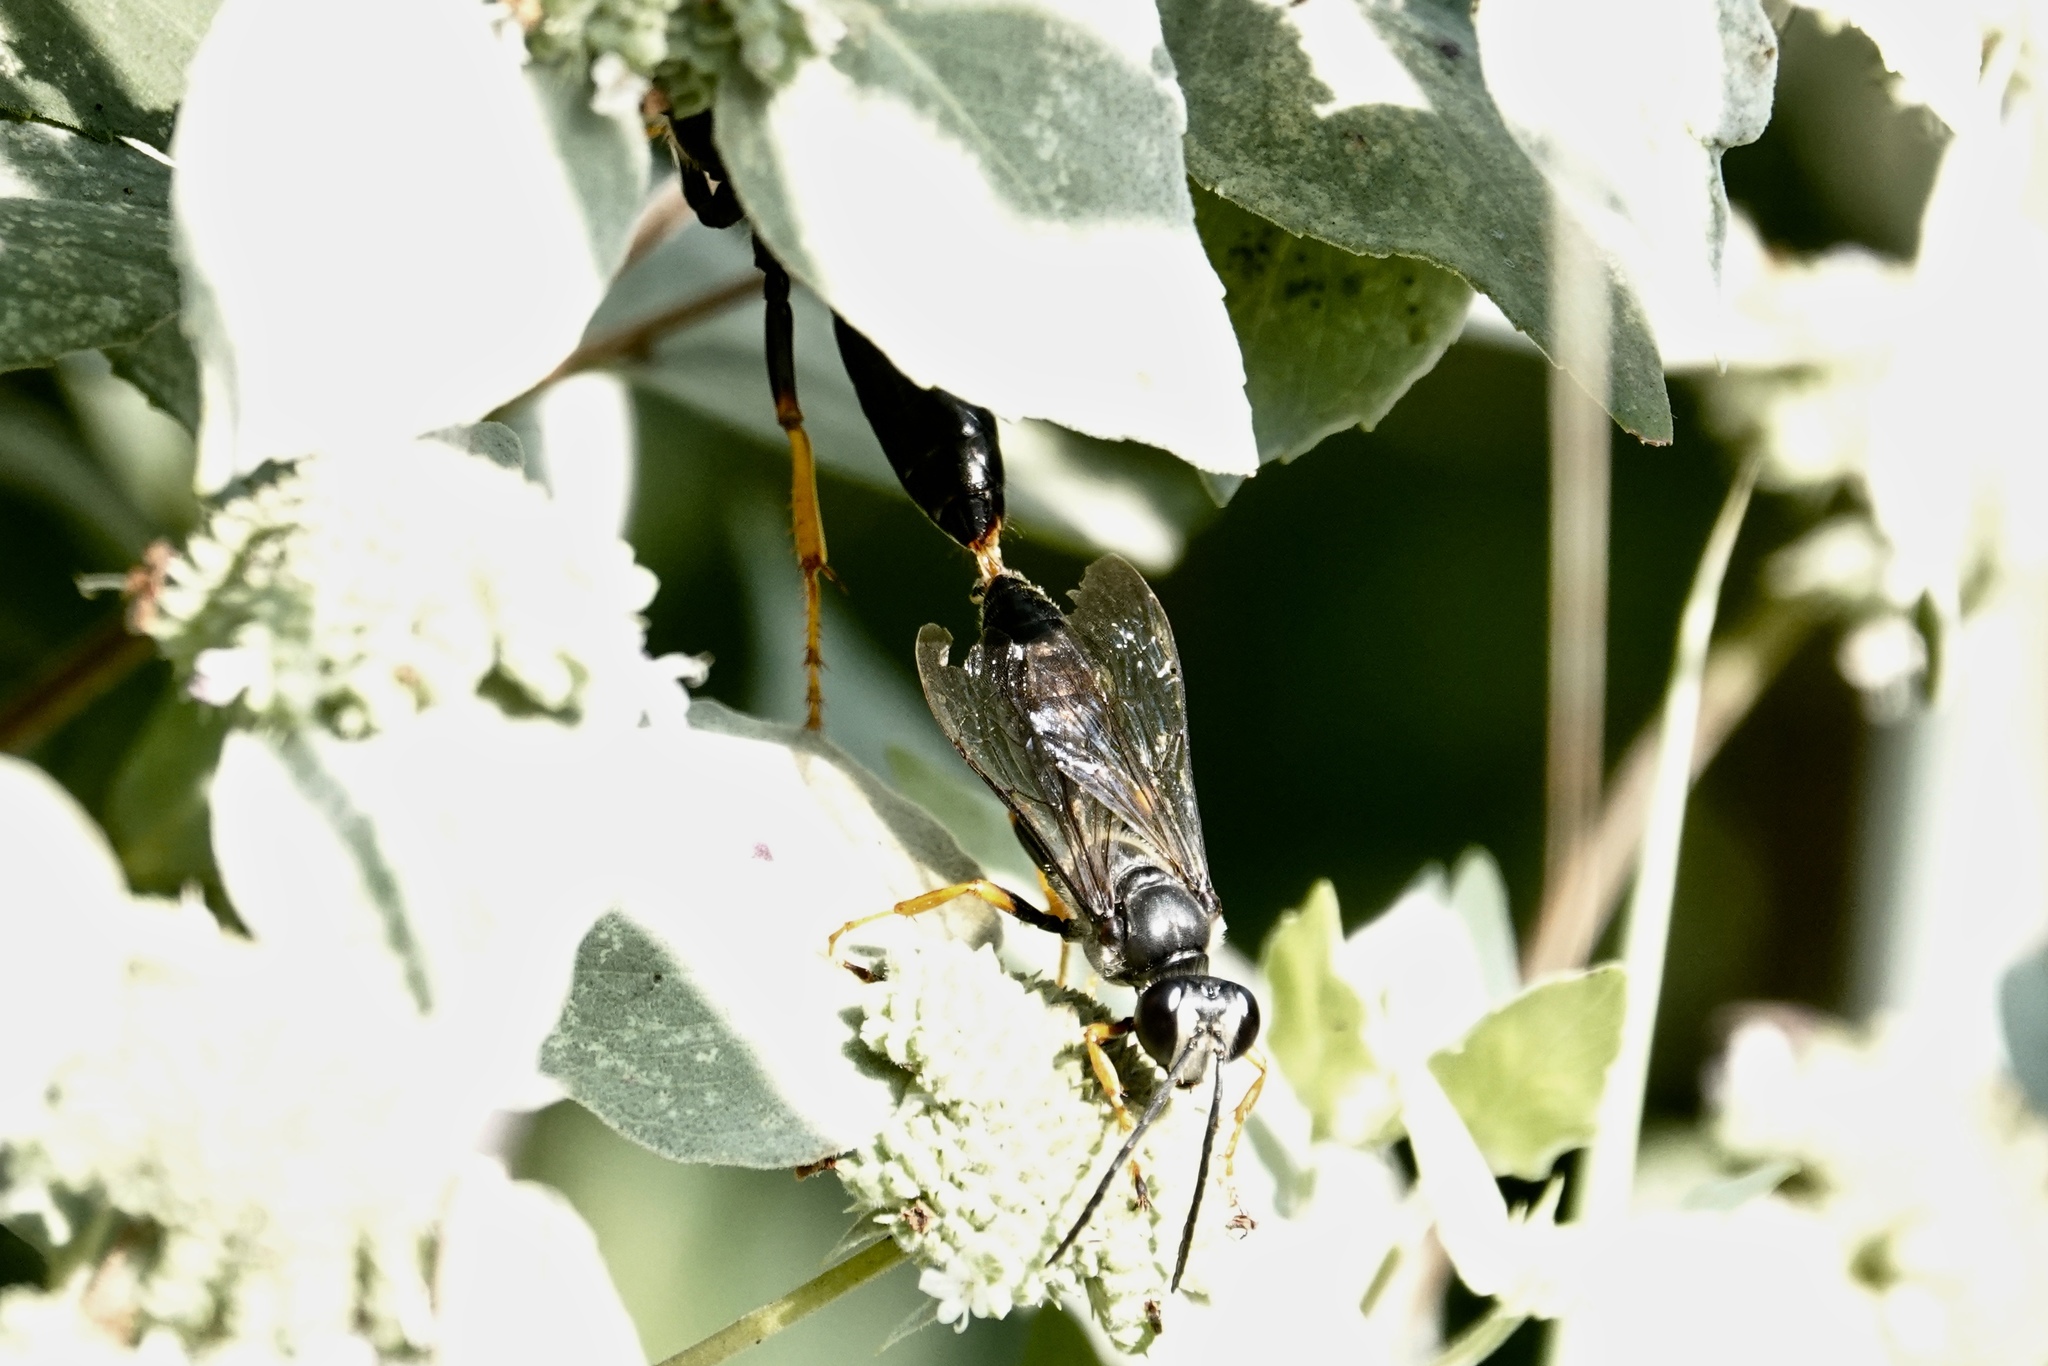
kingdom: Animalia
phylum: Arthropoda
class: Insecta
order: Hymenoptera
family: Sphecidae
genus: Sphex
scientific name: Sphex nudus
